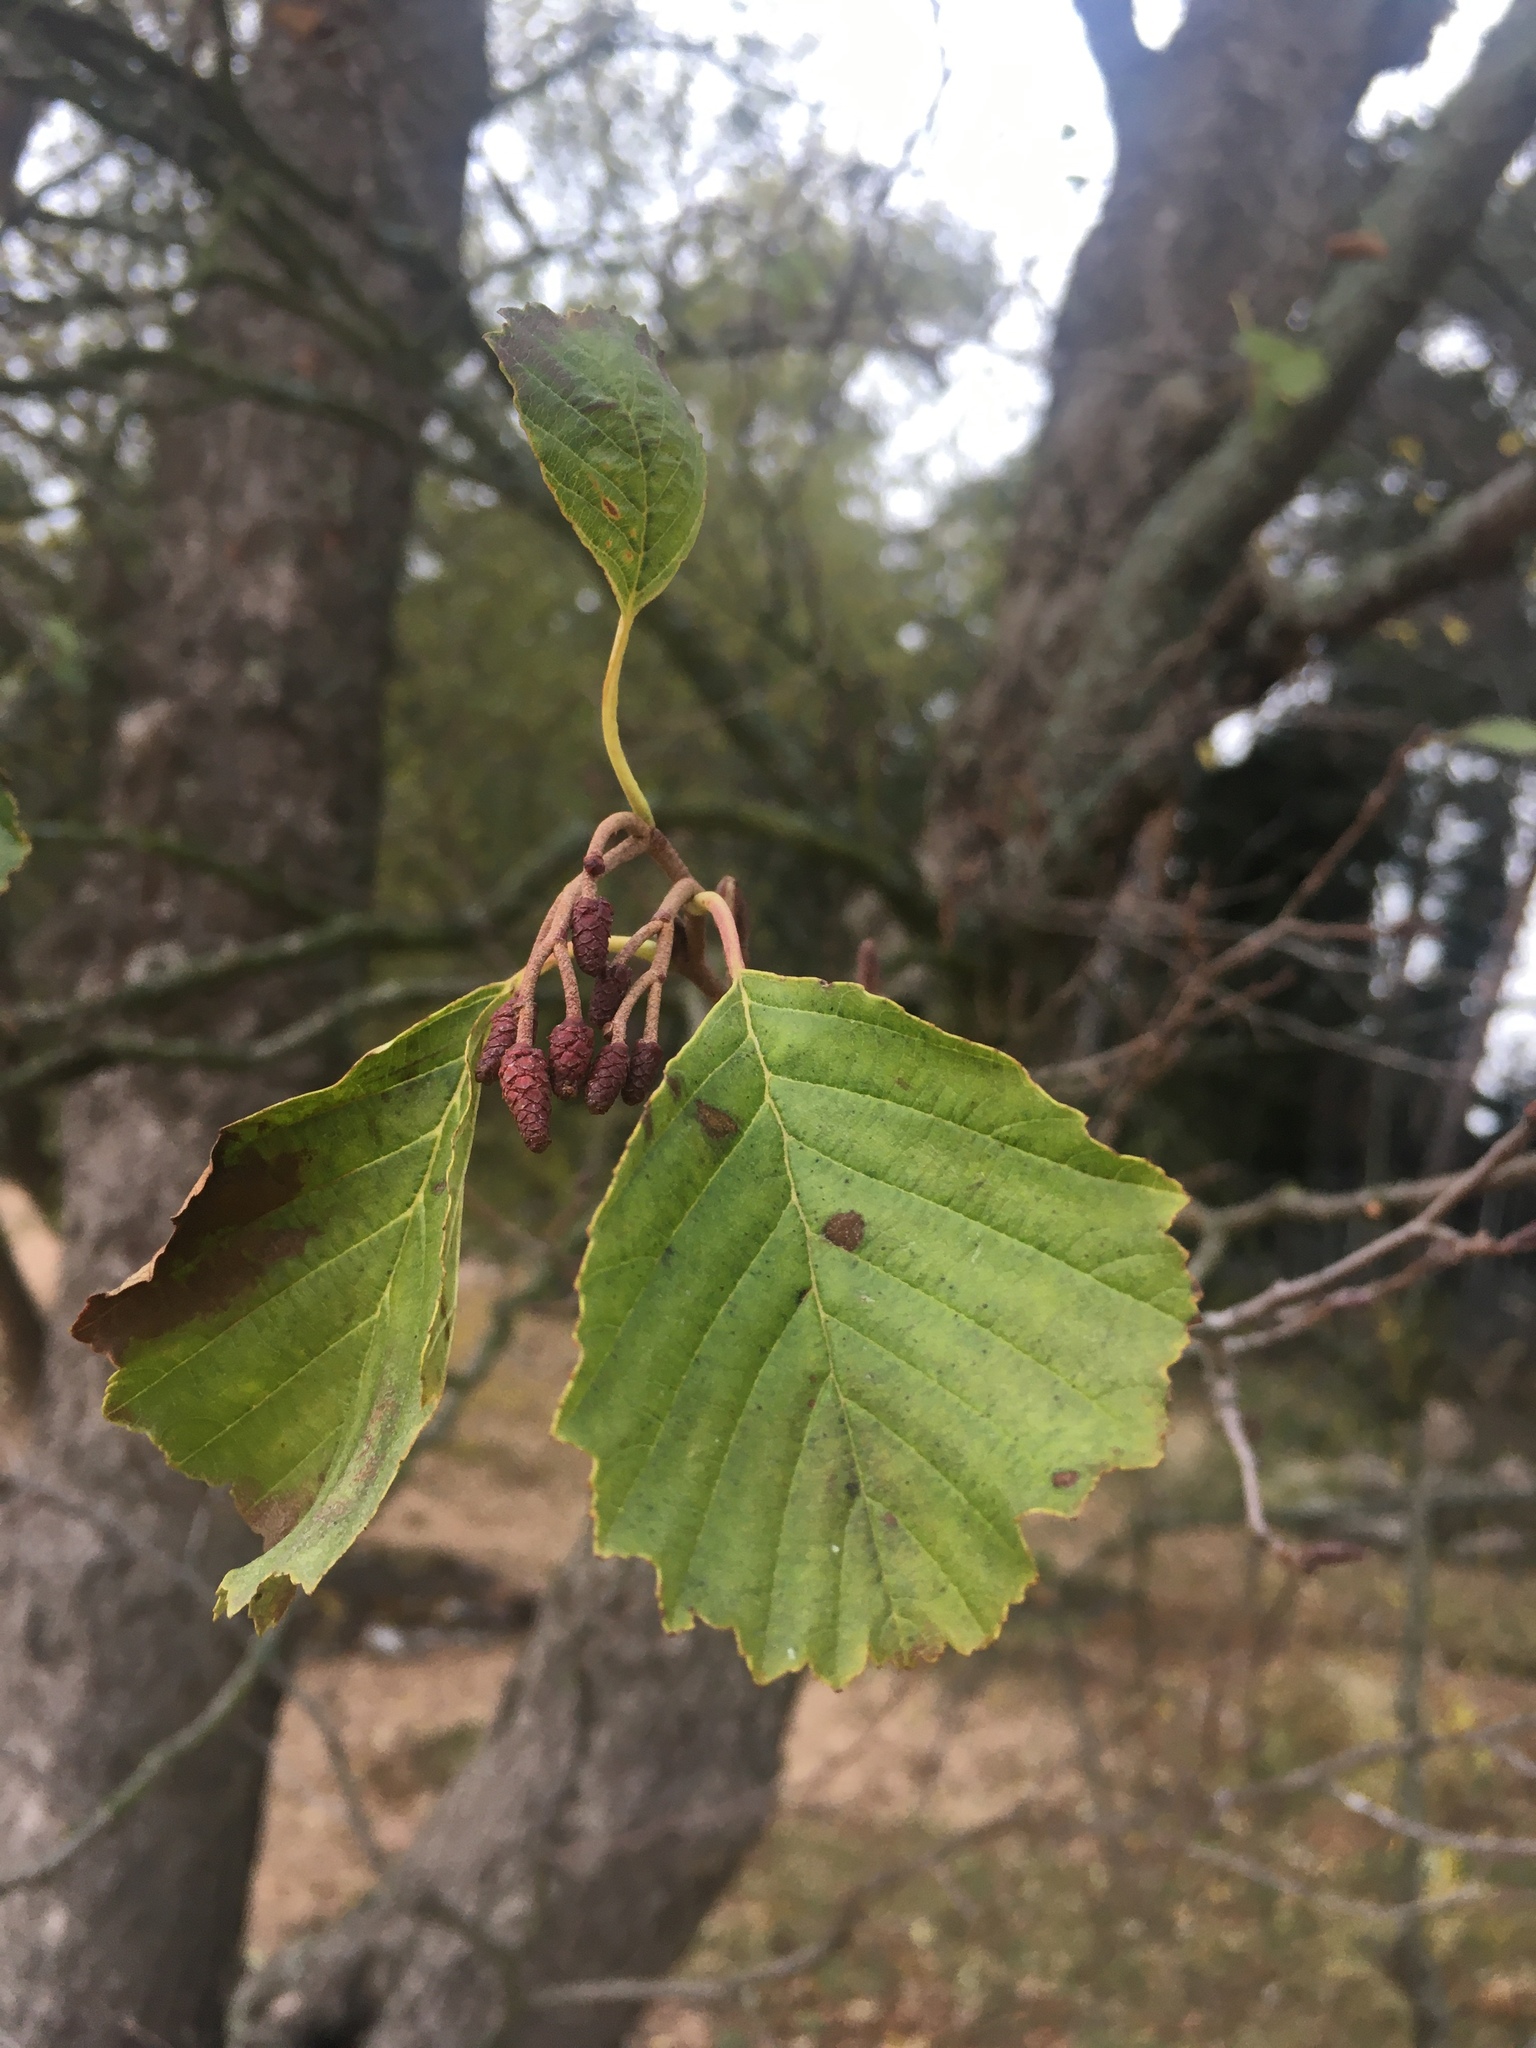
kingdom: Plantae
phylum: Tracheophyta
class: Magnoliopsida
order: Fagales
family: Betulaceae
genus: Alnus
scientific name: Alnus incana
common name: Grey alder
